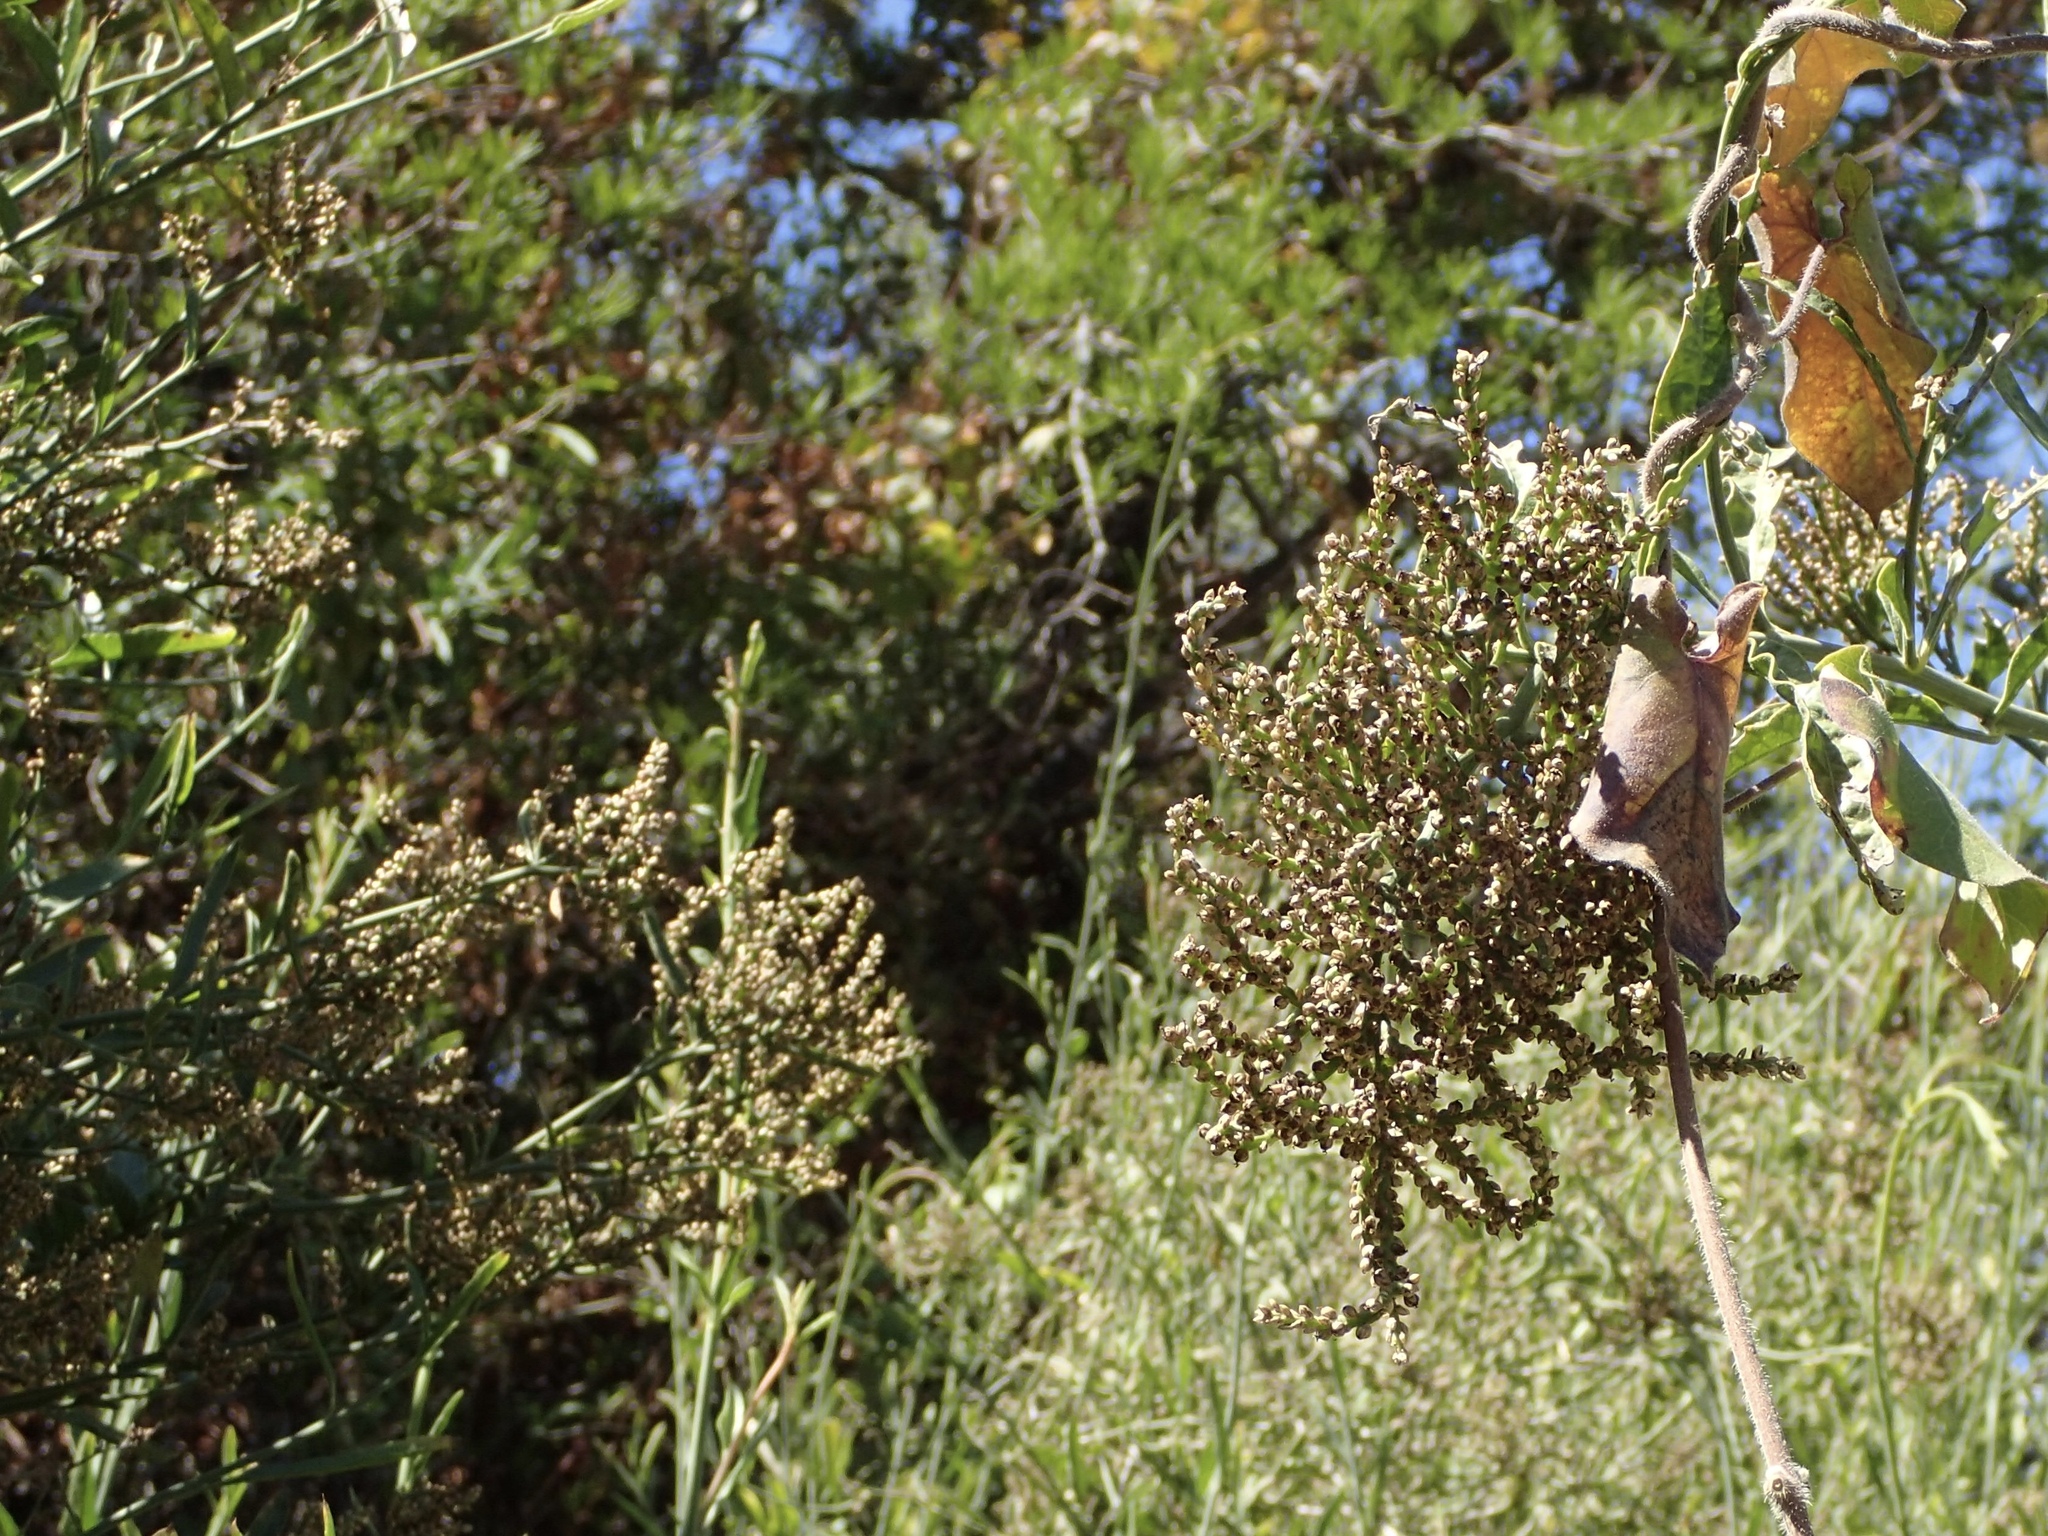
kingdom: Plantae
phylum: Tracheophyta
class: Magnoliopsida
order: Caryophyllales
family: Amaranthaceae
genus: Celosia
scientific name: Celosia floribunda
